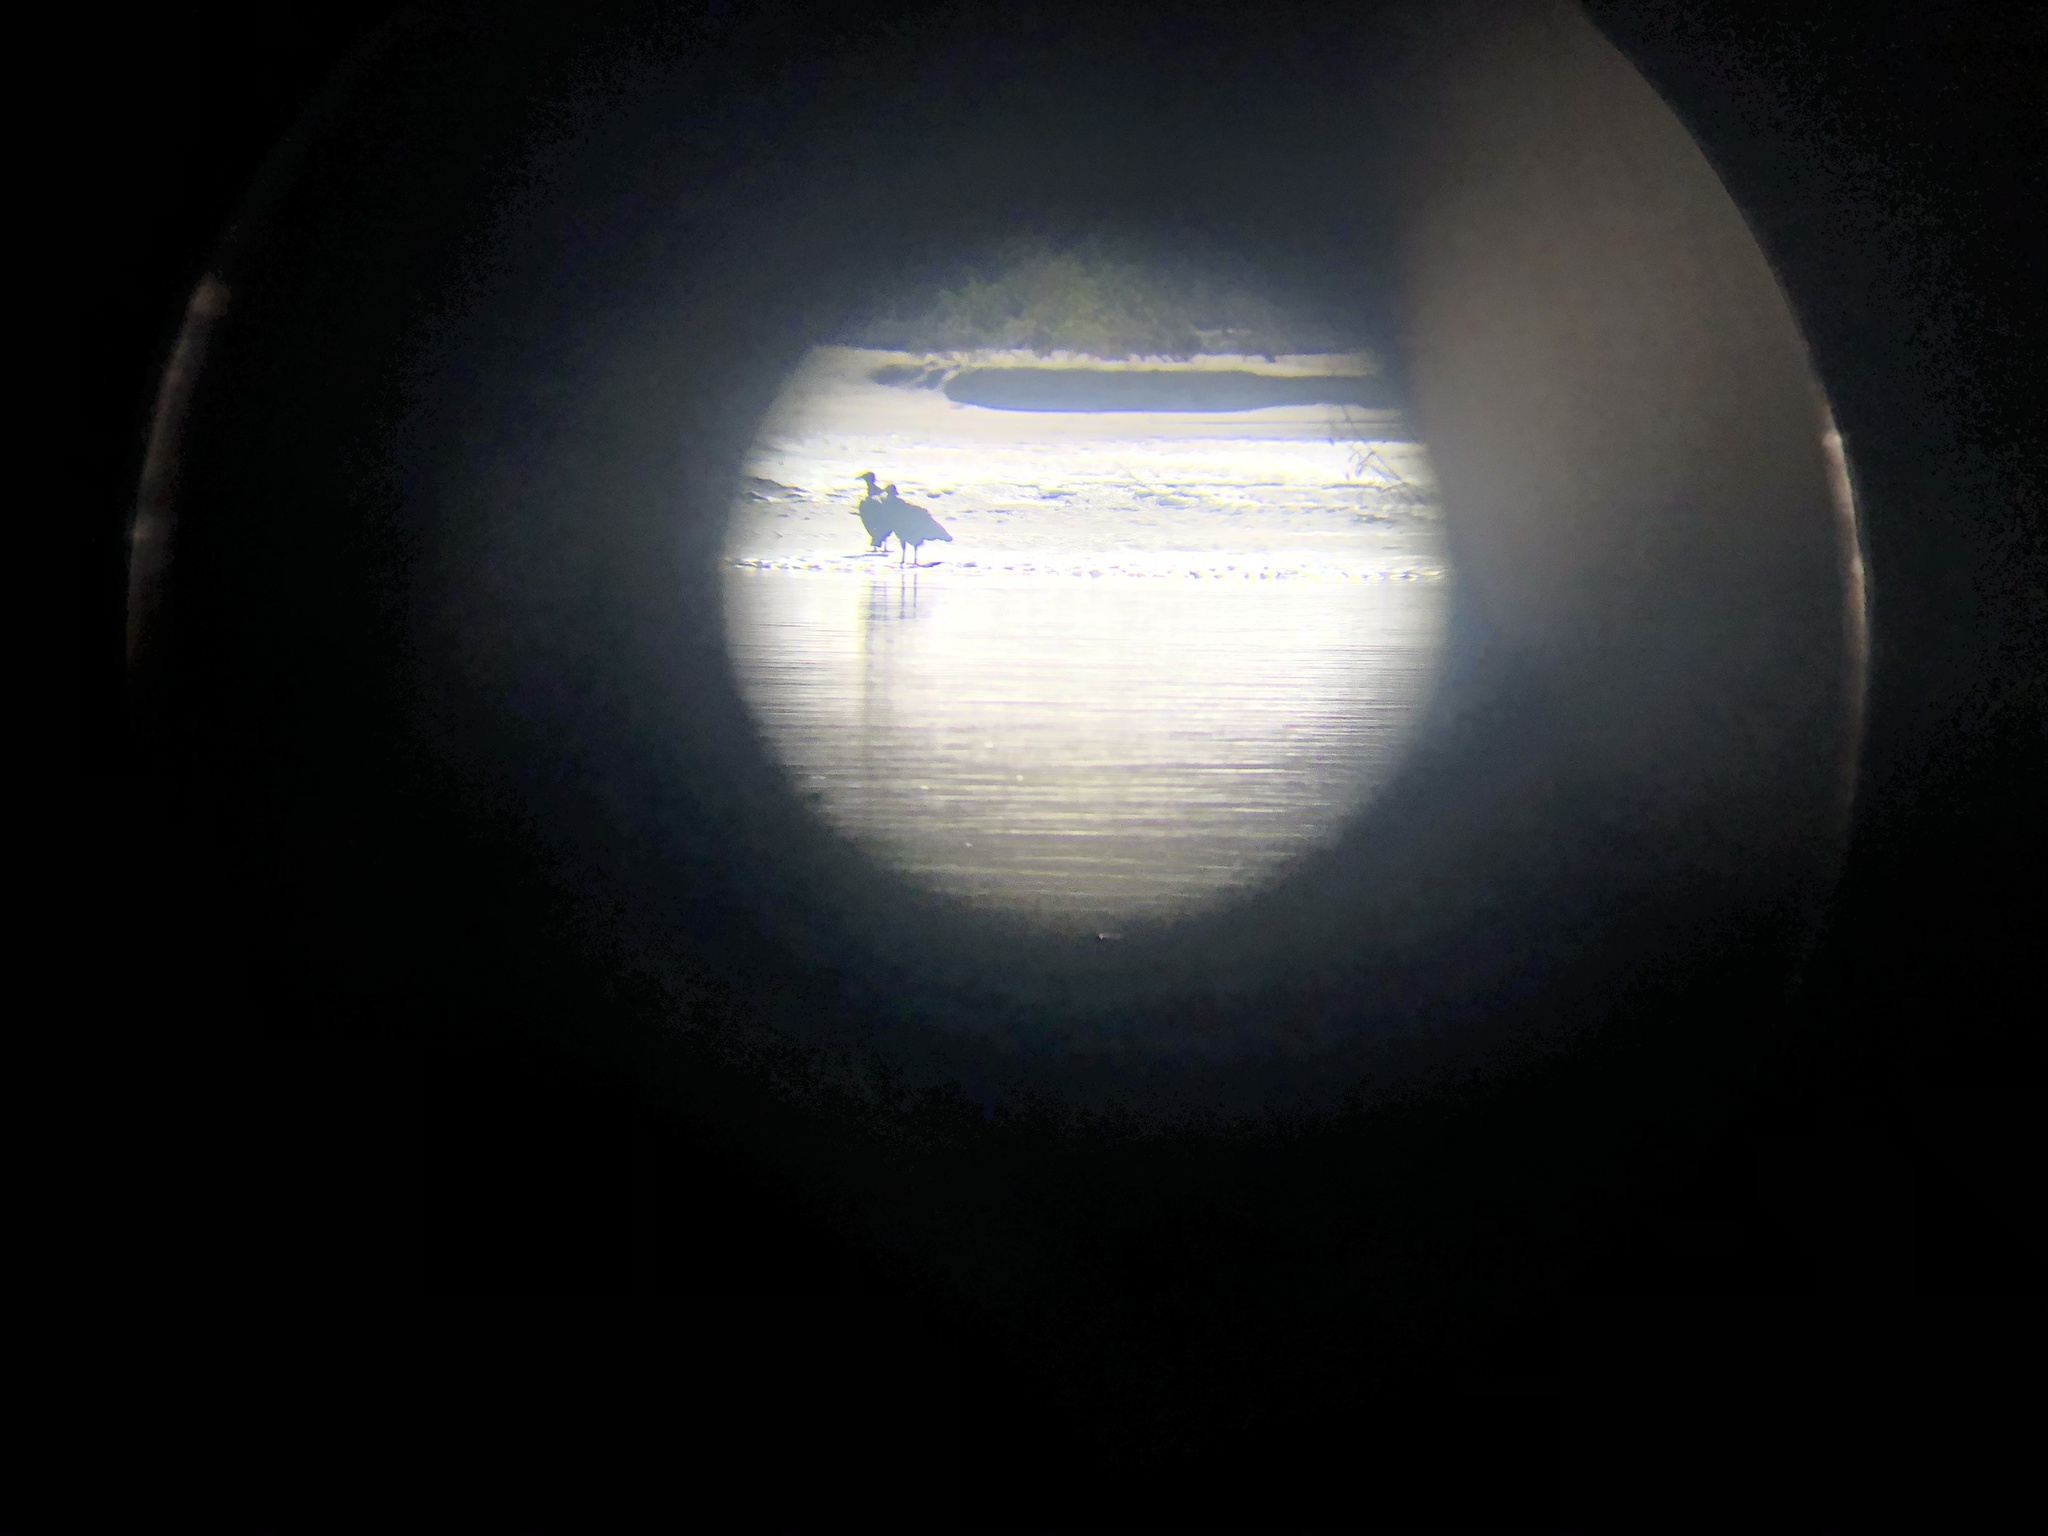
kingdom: Animalia
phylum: Chordata
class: Aves
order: Accipitriformes
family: Cathartidae
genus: Coragyps
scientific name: Coragyps atratus
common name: Black vulture
